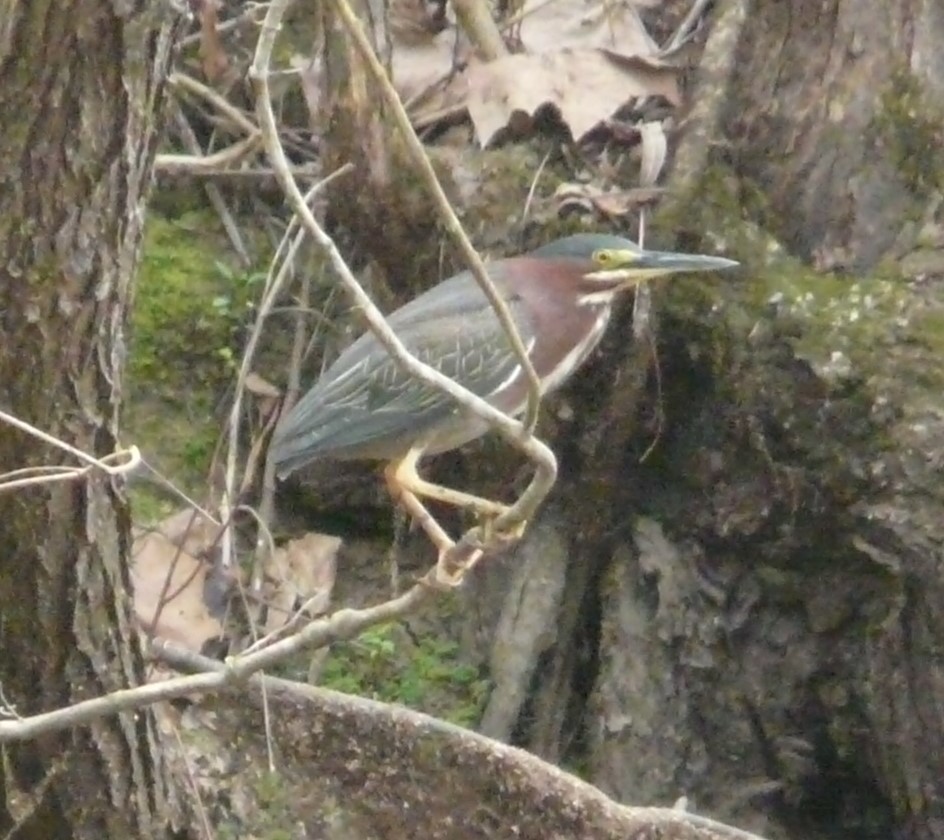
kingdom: Animalia
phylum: Chordata
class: Aves
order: Pelecaniformes
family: Ardeidae
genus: Butorides
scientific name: Butorides virescens
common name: Green heron
